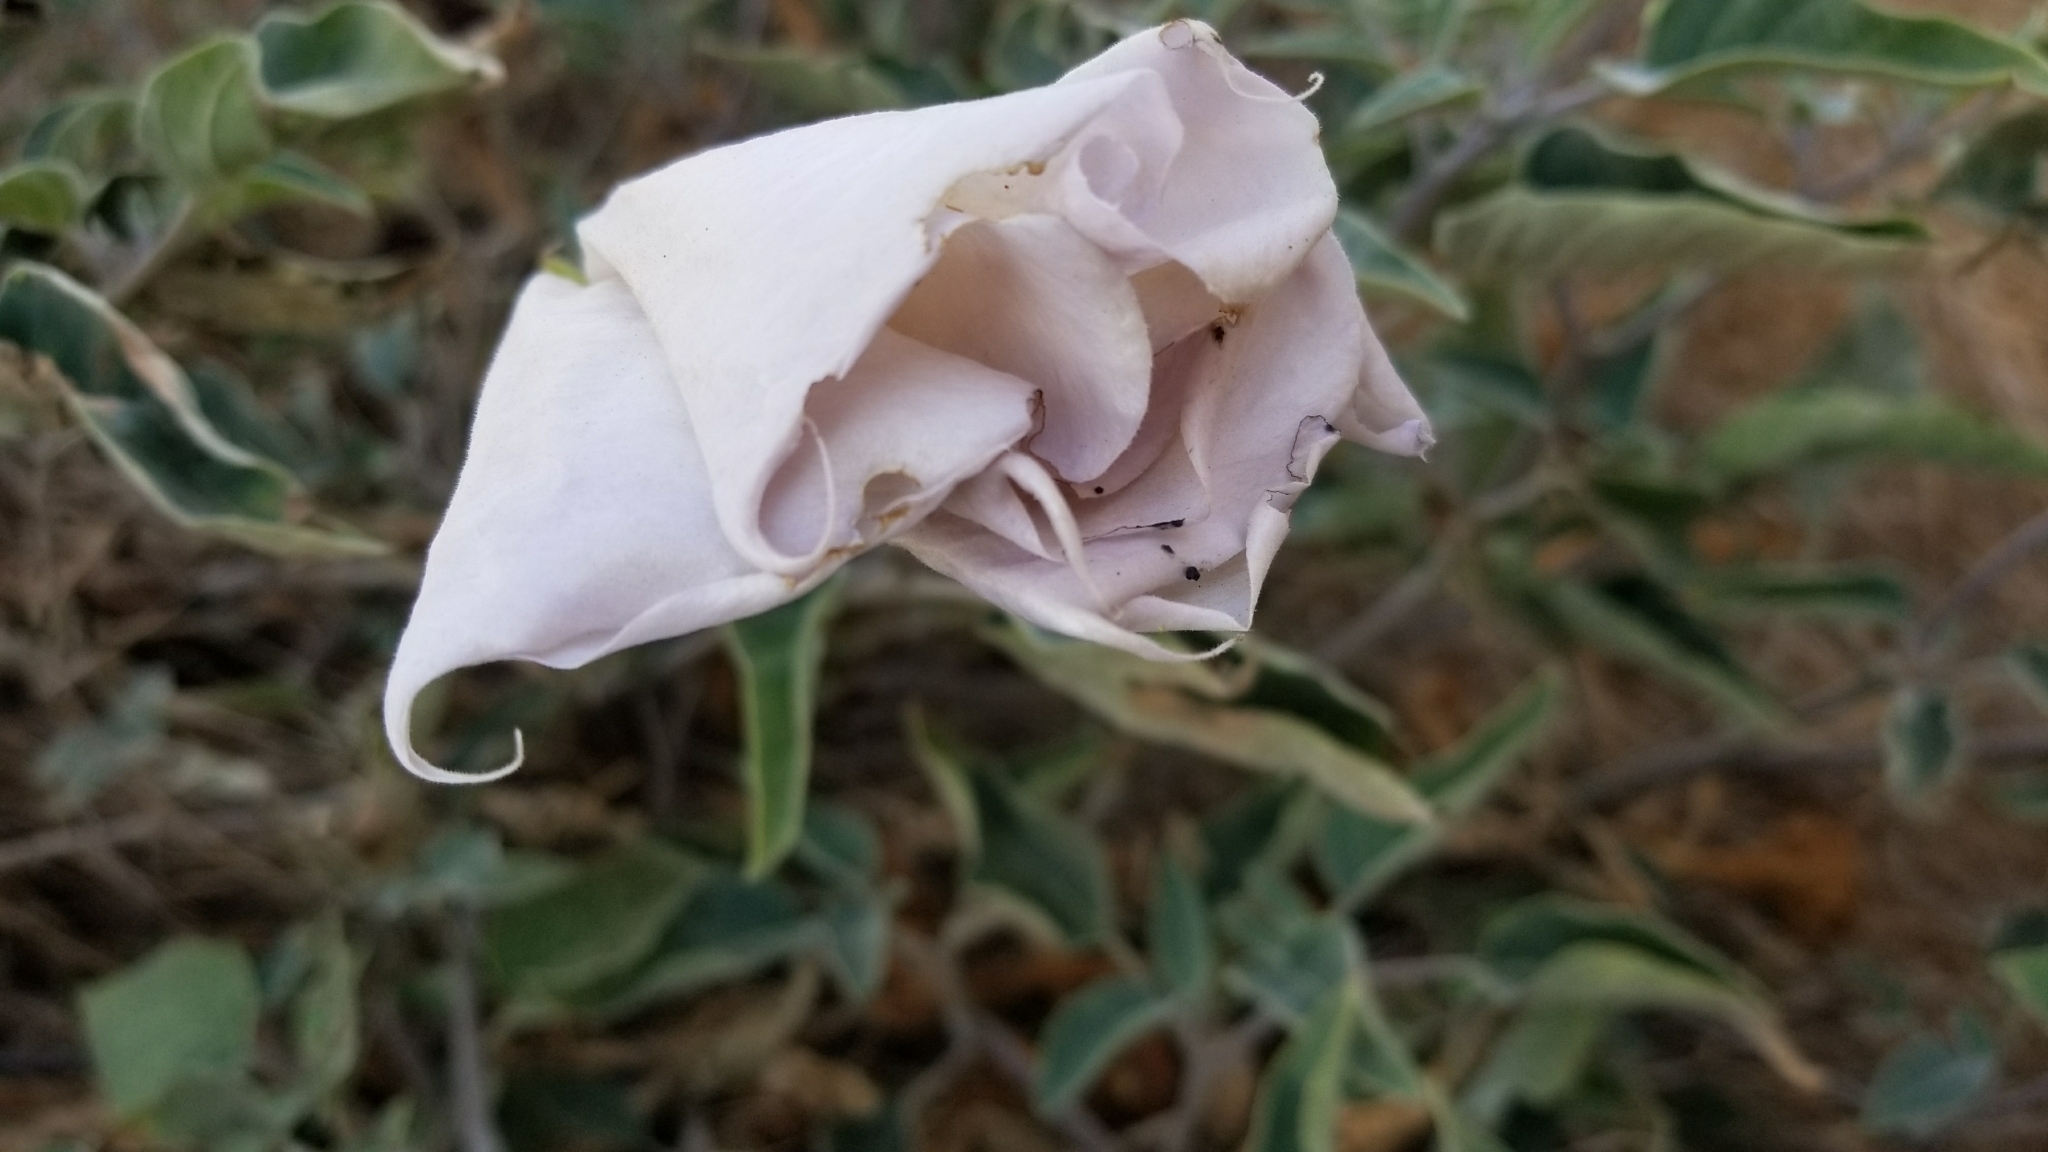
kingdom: Plantae
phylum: Tracheophyta
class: Magnoliopsida
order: Solanales
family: Solanaceae
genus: Datura
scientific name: Datura wrightii
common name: Sacred thorn-apple
